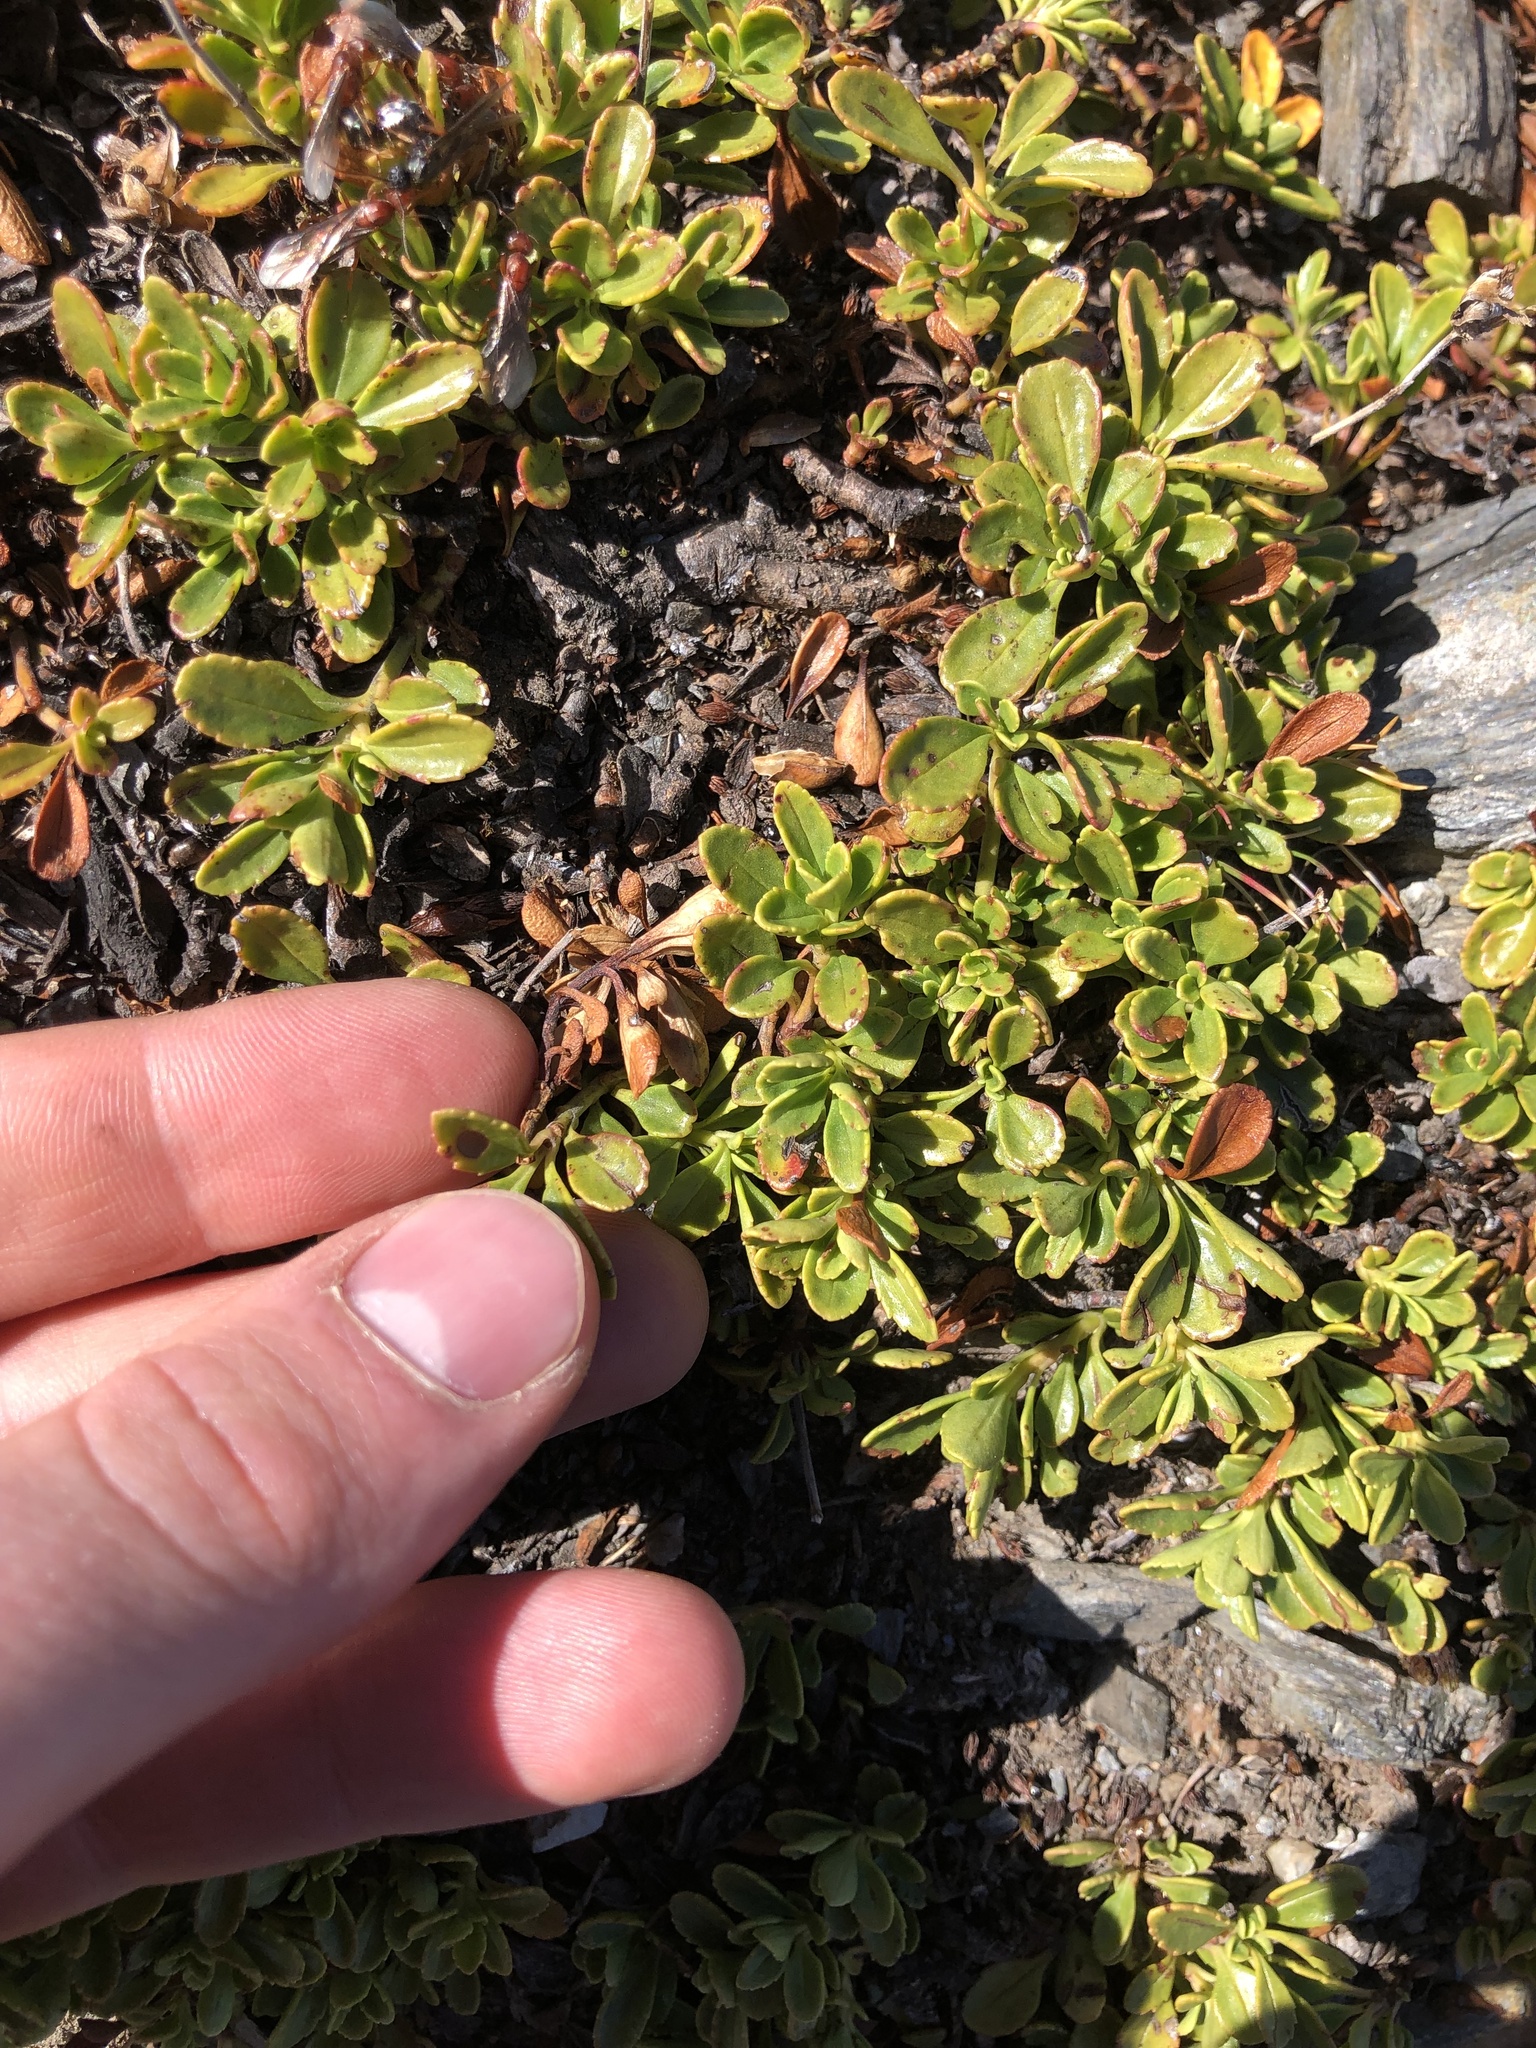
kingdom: Plantae
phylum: Tracheophyta
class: Magnoliopsida
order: Lamiales
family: Plantaginaceae
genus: Penstemon
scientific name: Penstemon davidsonii
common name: Davidson's penstemon
